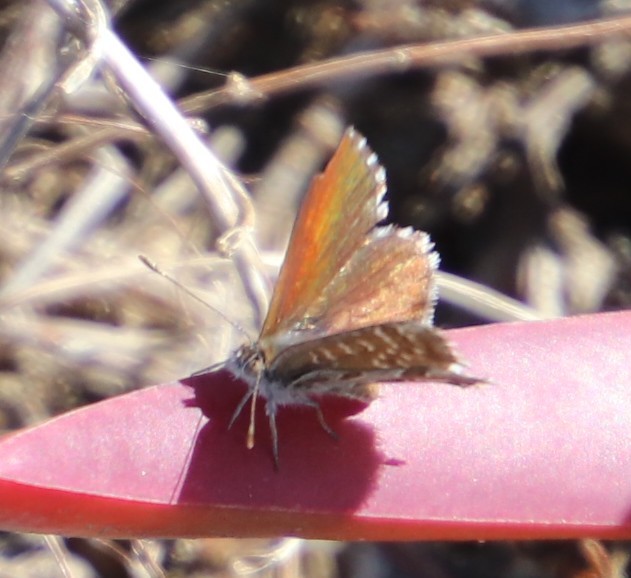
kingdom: Animalia
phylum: Arthropoda
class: Insecta
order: Lepidoptera
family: Lycaenidae
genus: Cacyreus
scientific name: Cacyreus marshalli
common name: Geranium bronze
